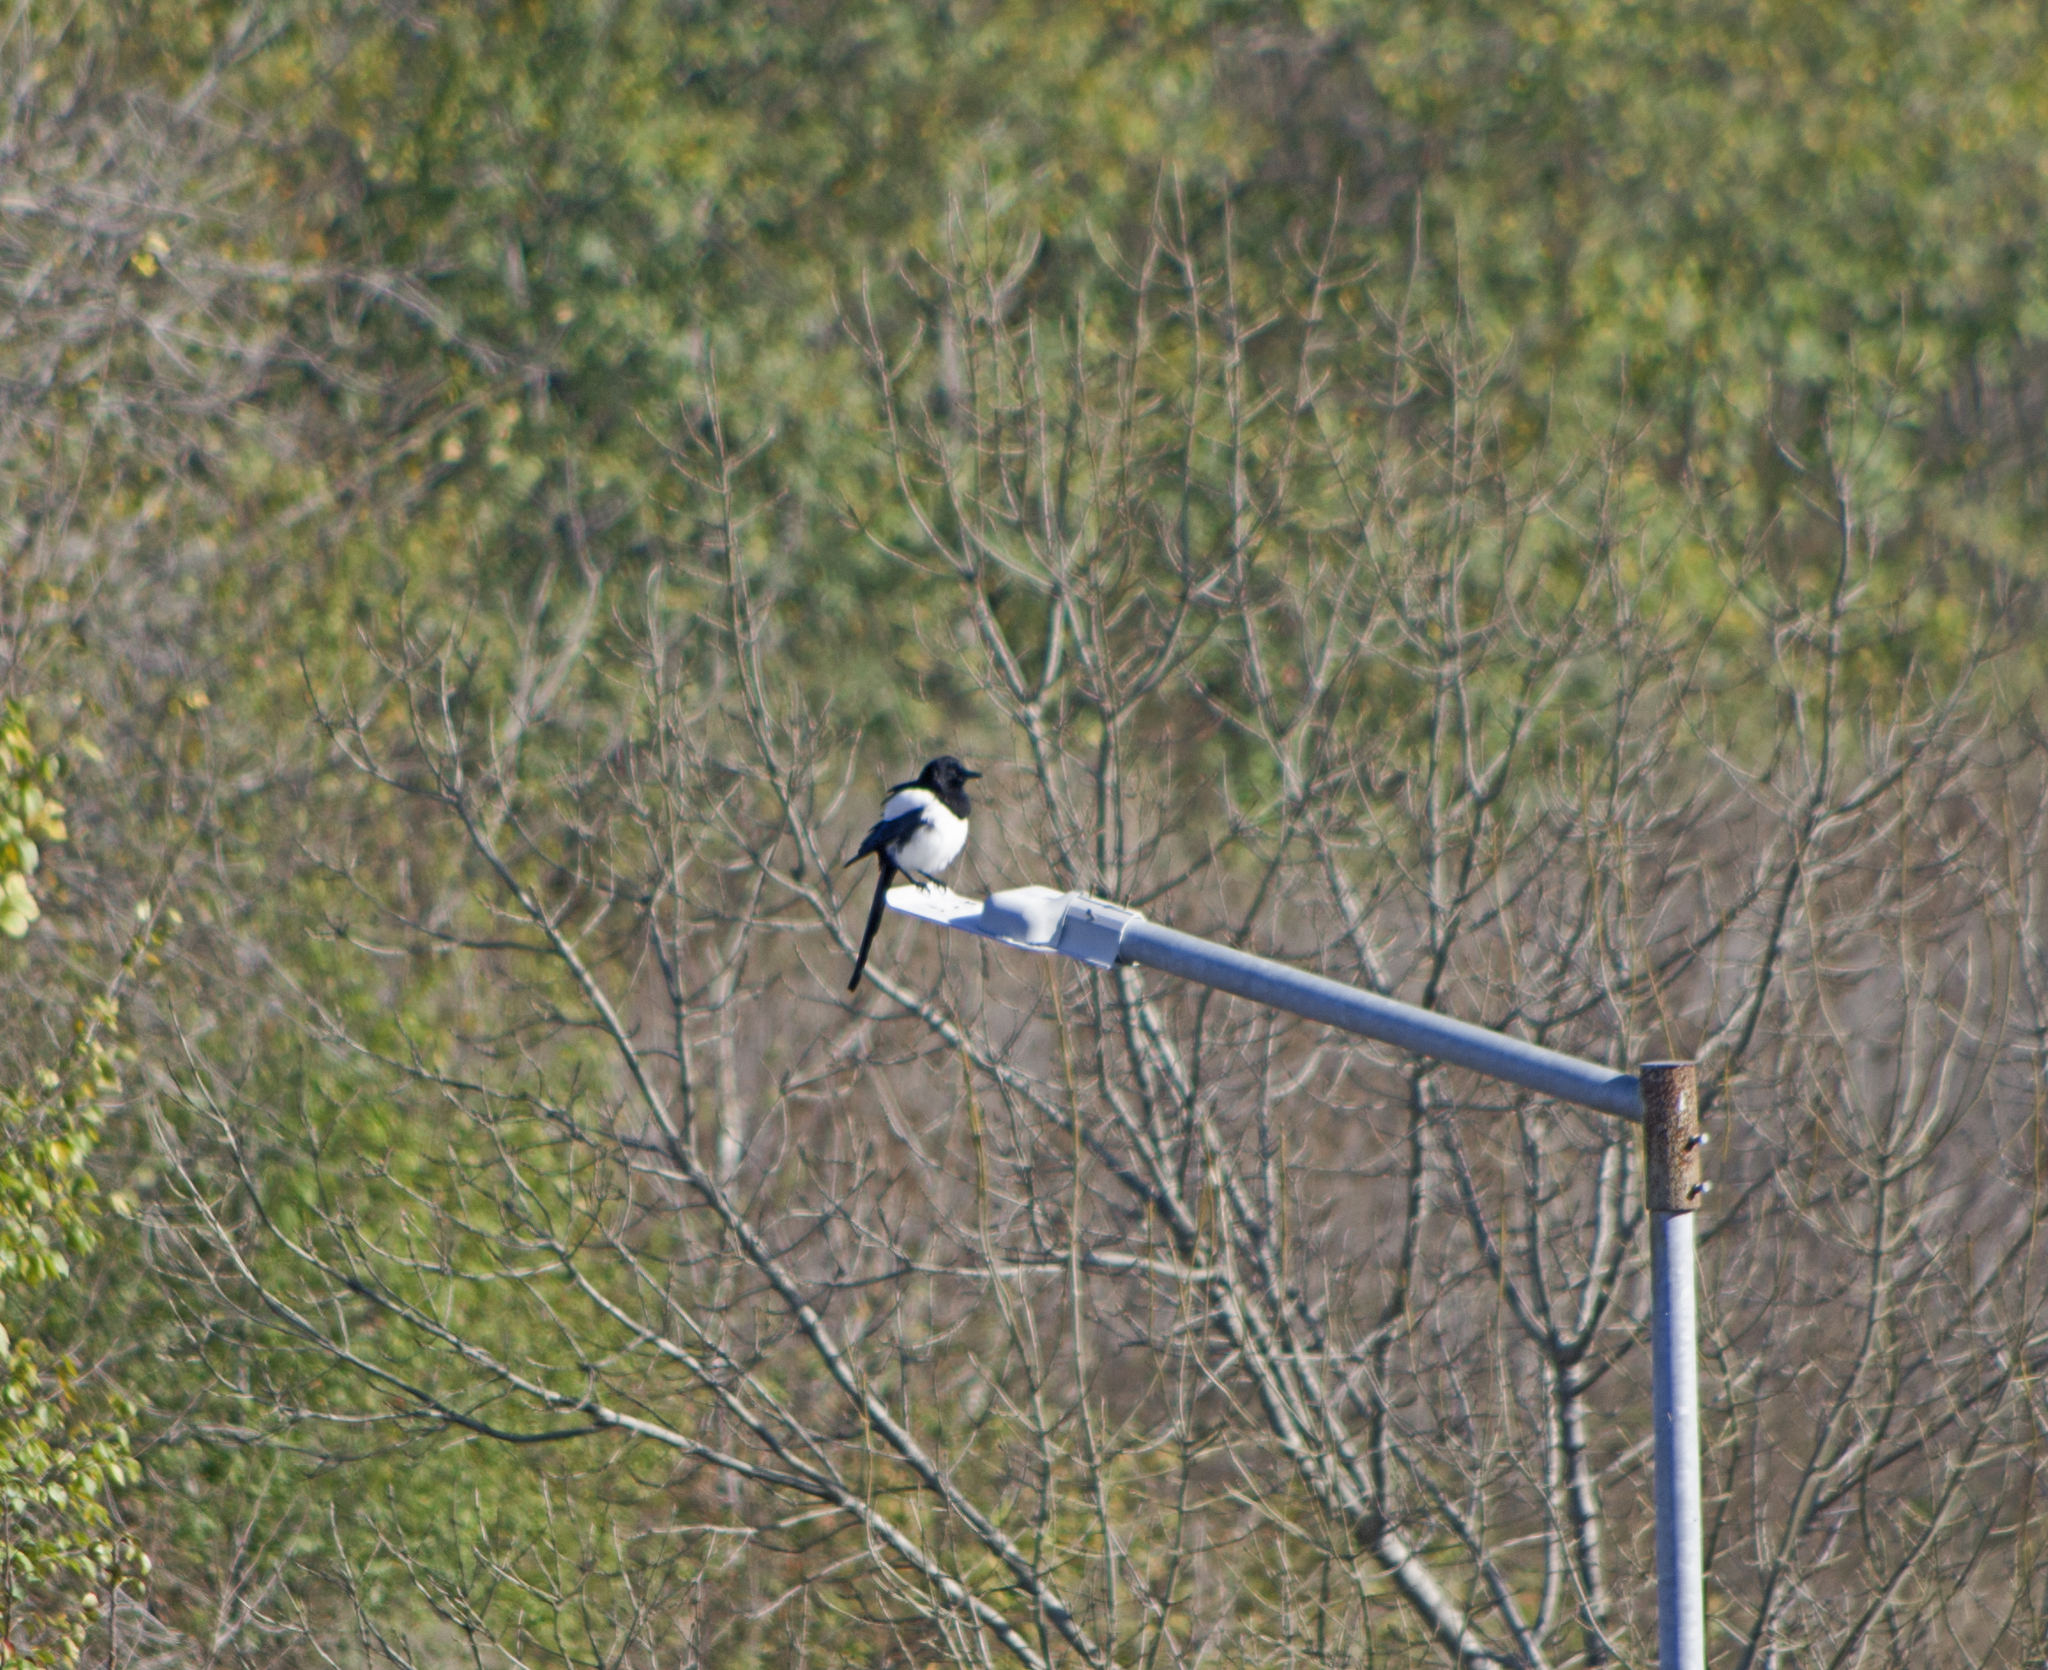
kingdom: Animalia
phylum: Chordata
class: Aves
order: Passeriformes
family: Corvidae
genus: Pica
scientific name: Pica pica
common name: Eurasian magpie
